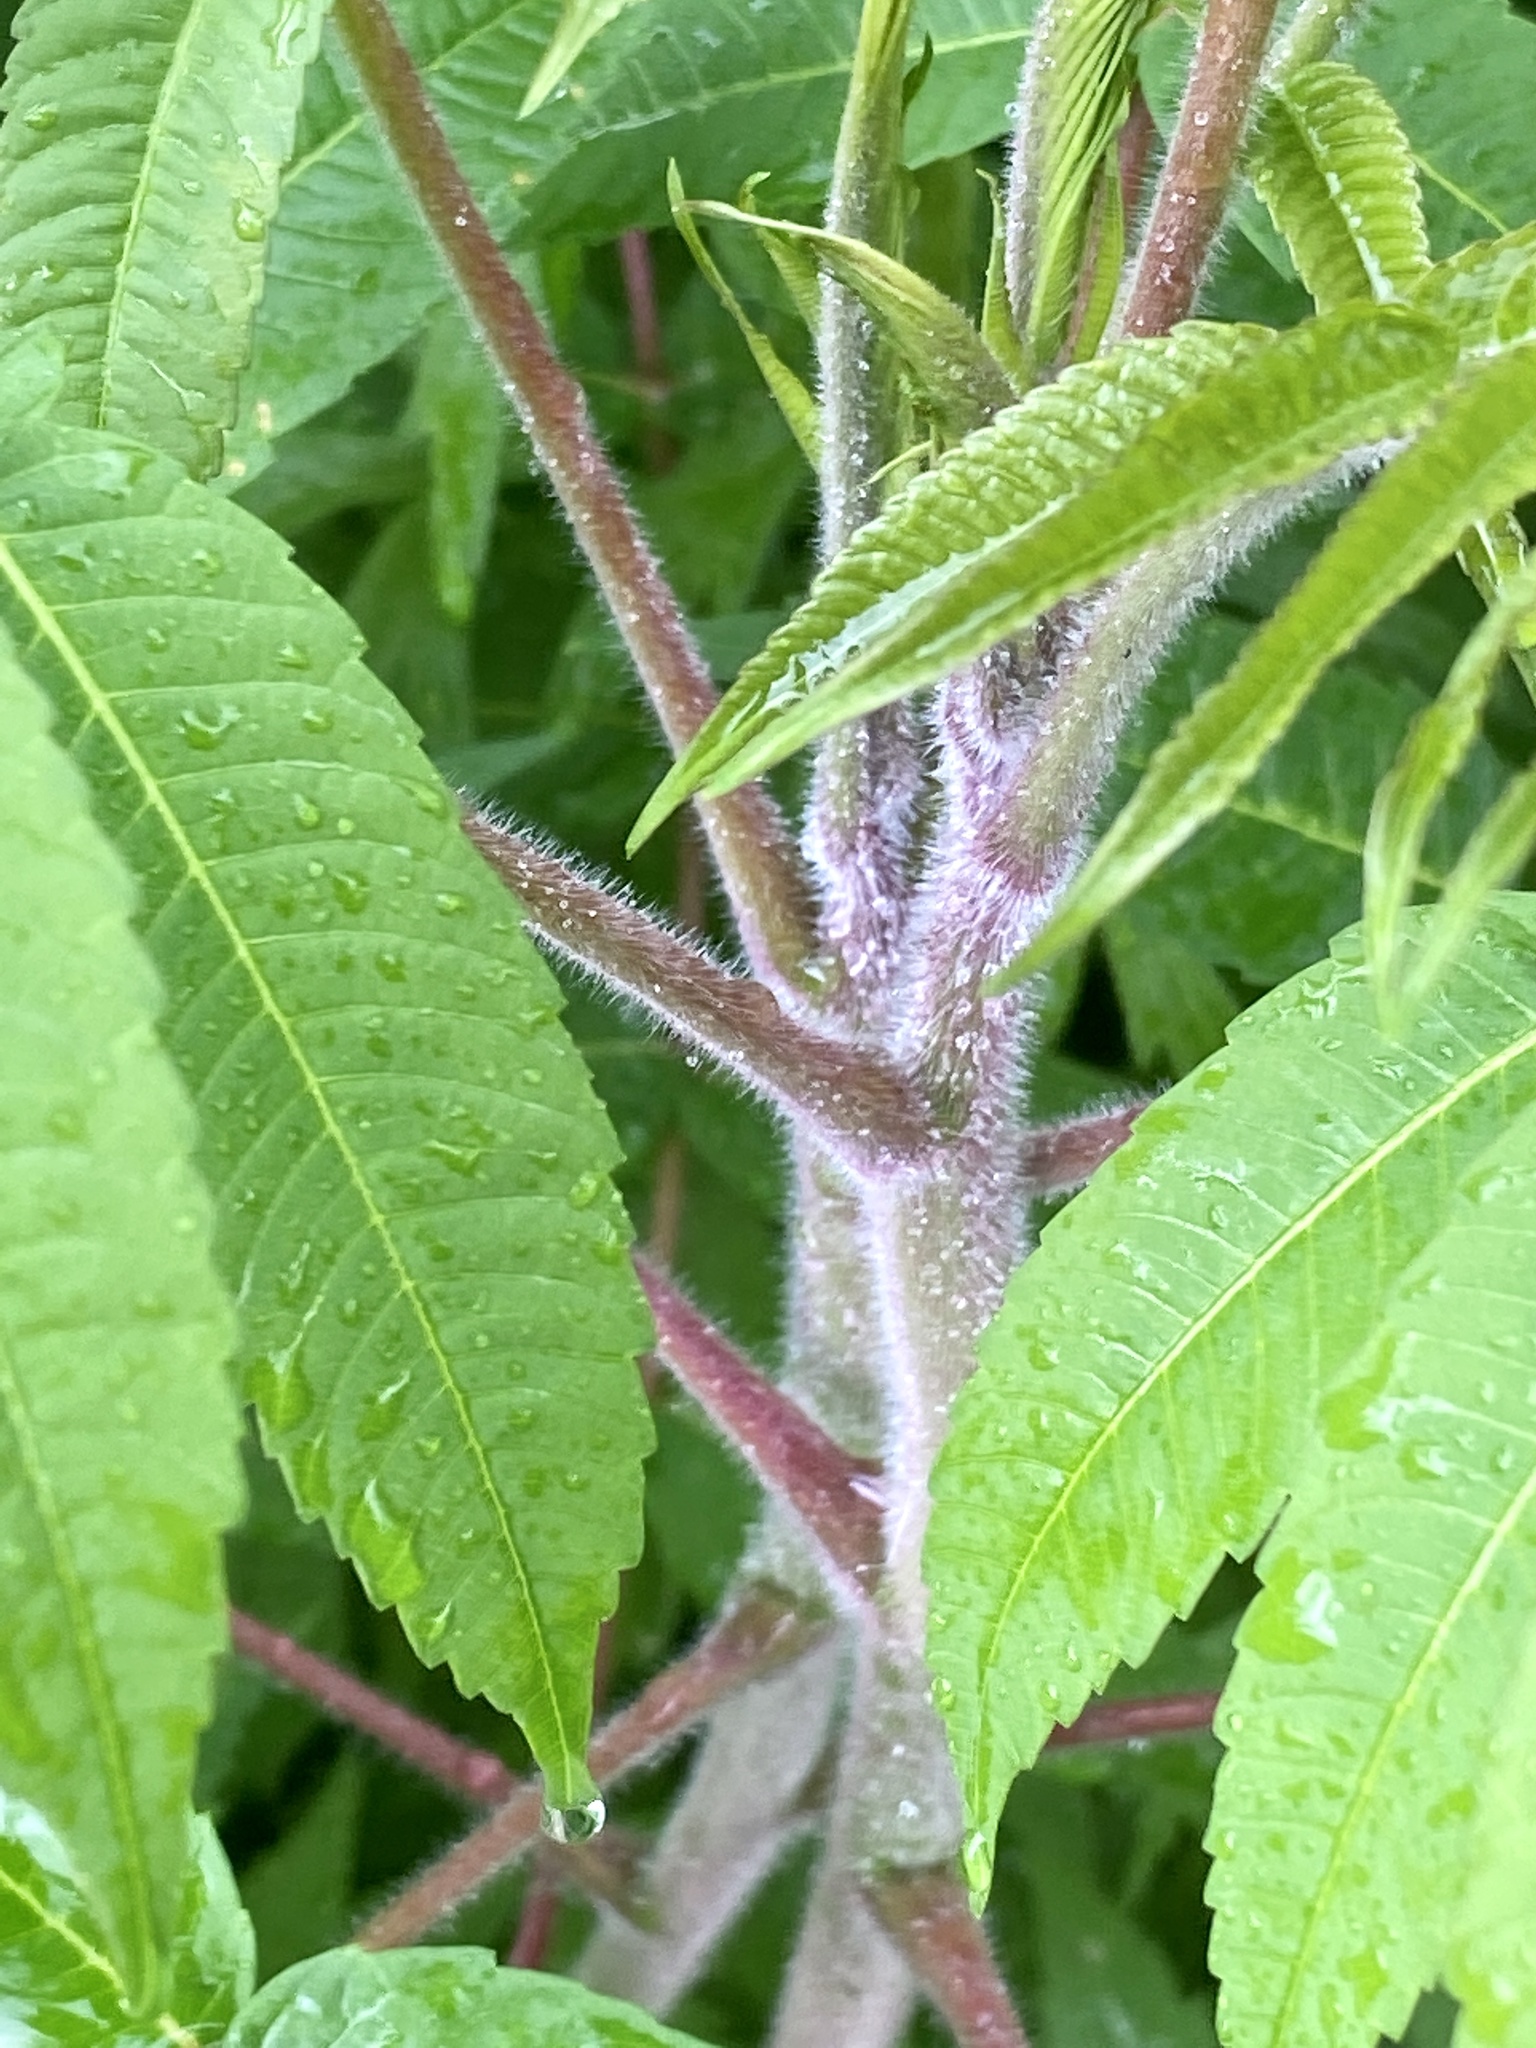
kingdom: Plantae
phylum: Tracheophyta
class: Magnoliopsida
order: Sapindales
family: Anacardiaceae
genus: Rhus
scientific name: Rhus typhina
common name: Staghorn sumac
